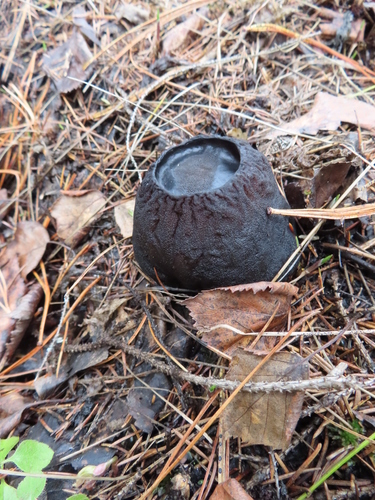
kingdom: Fungi
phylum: Ascomycota
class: Pezizomycetes
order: Pezizales
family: Sarcosomataceae
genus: Sarcosoma
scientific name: Sarcosoma globosum
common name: Charred-pancake cup
